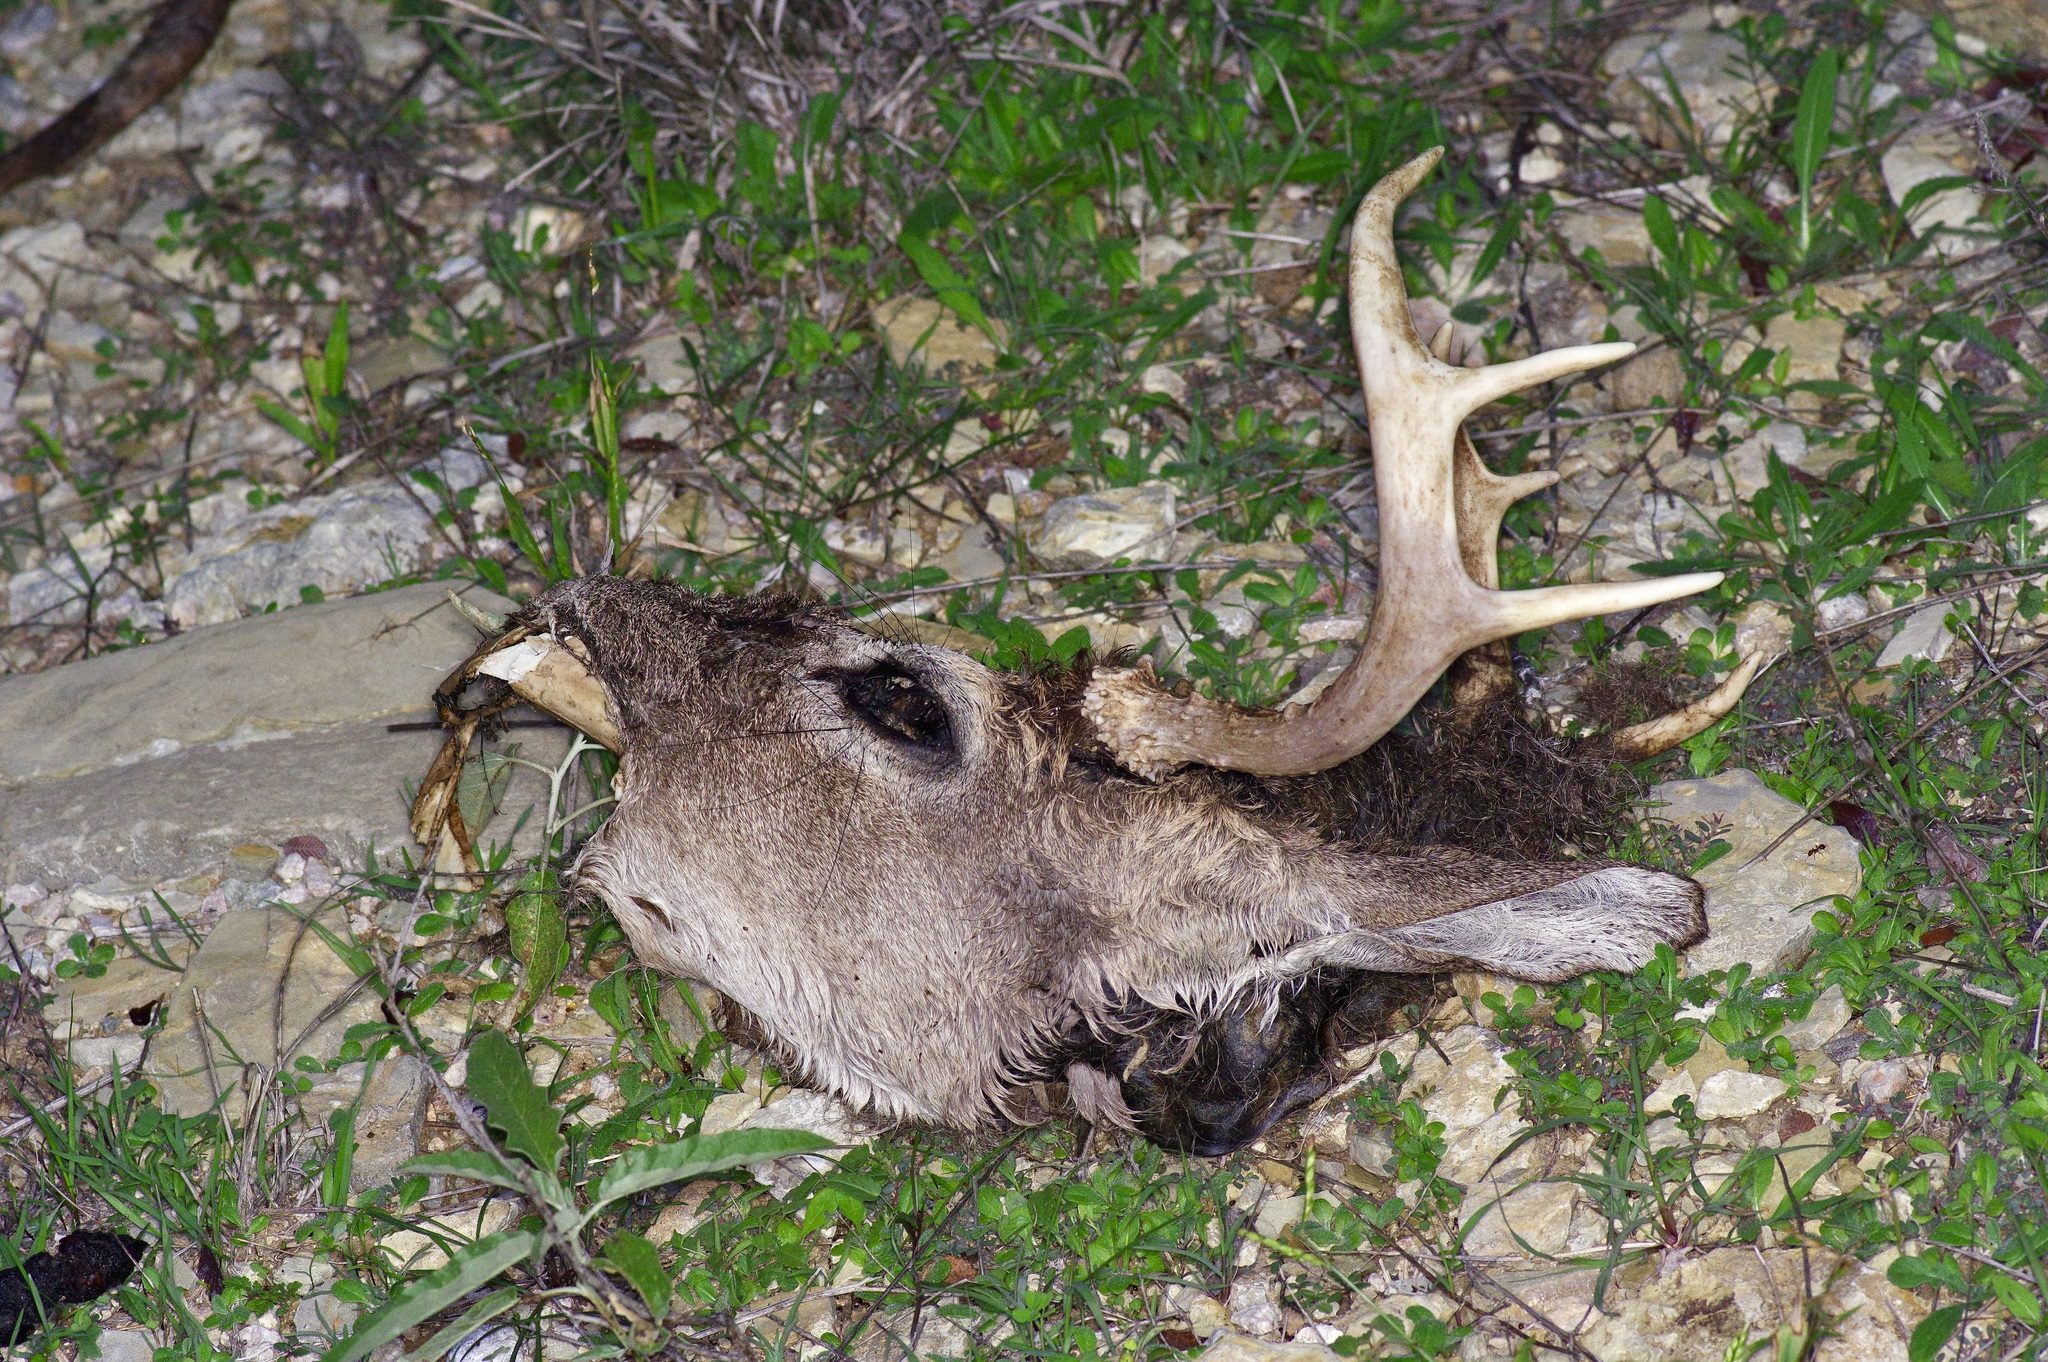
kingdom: Animalia
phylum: Chordata
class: Mammalia
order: Artiodactyla
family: Cervidae
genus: Odocoileus
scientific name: Odocoileus virginianus
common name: White-tailed deer
